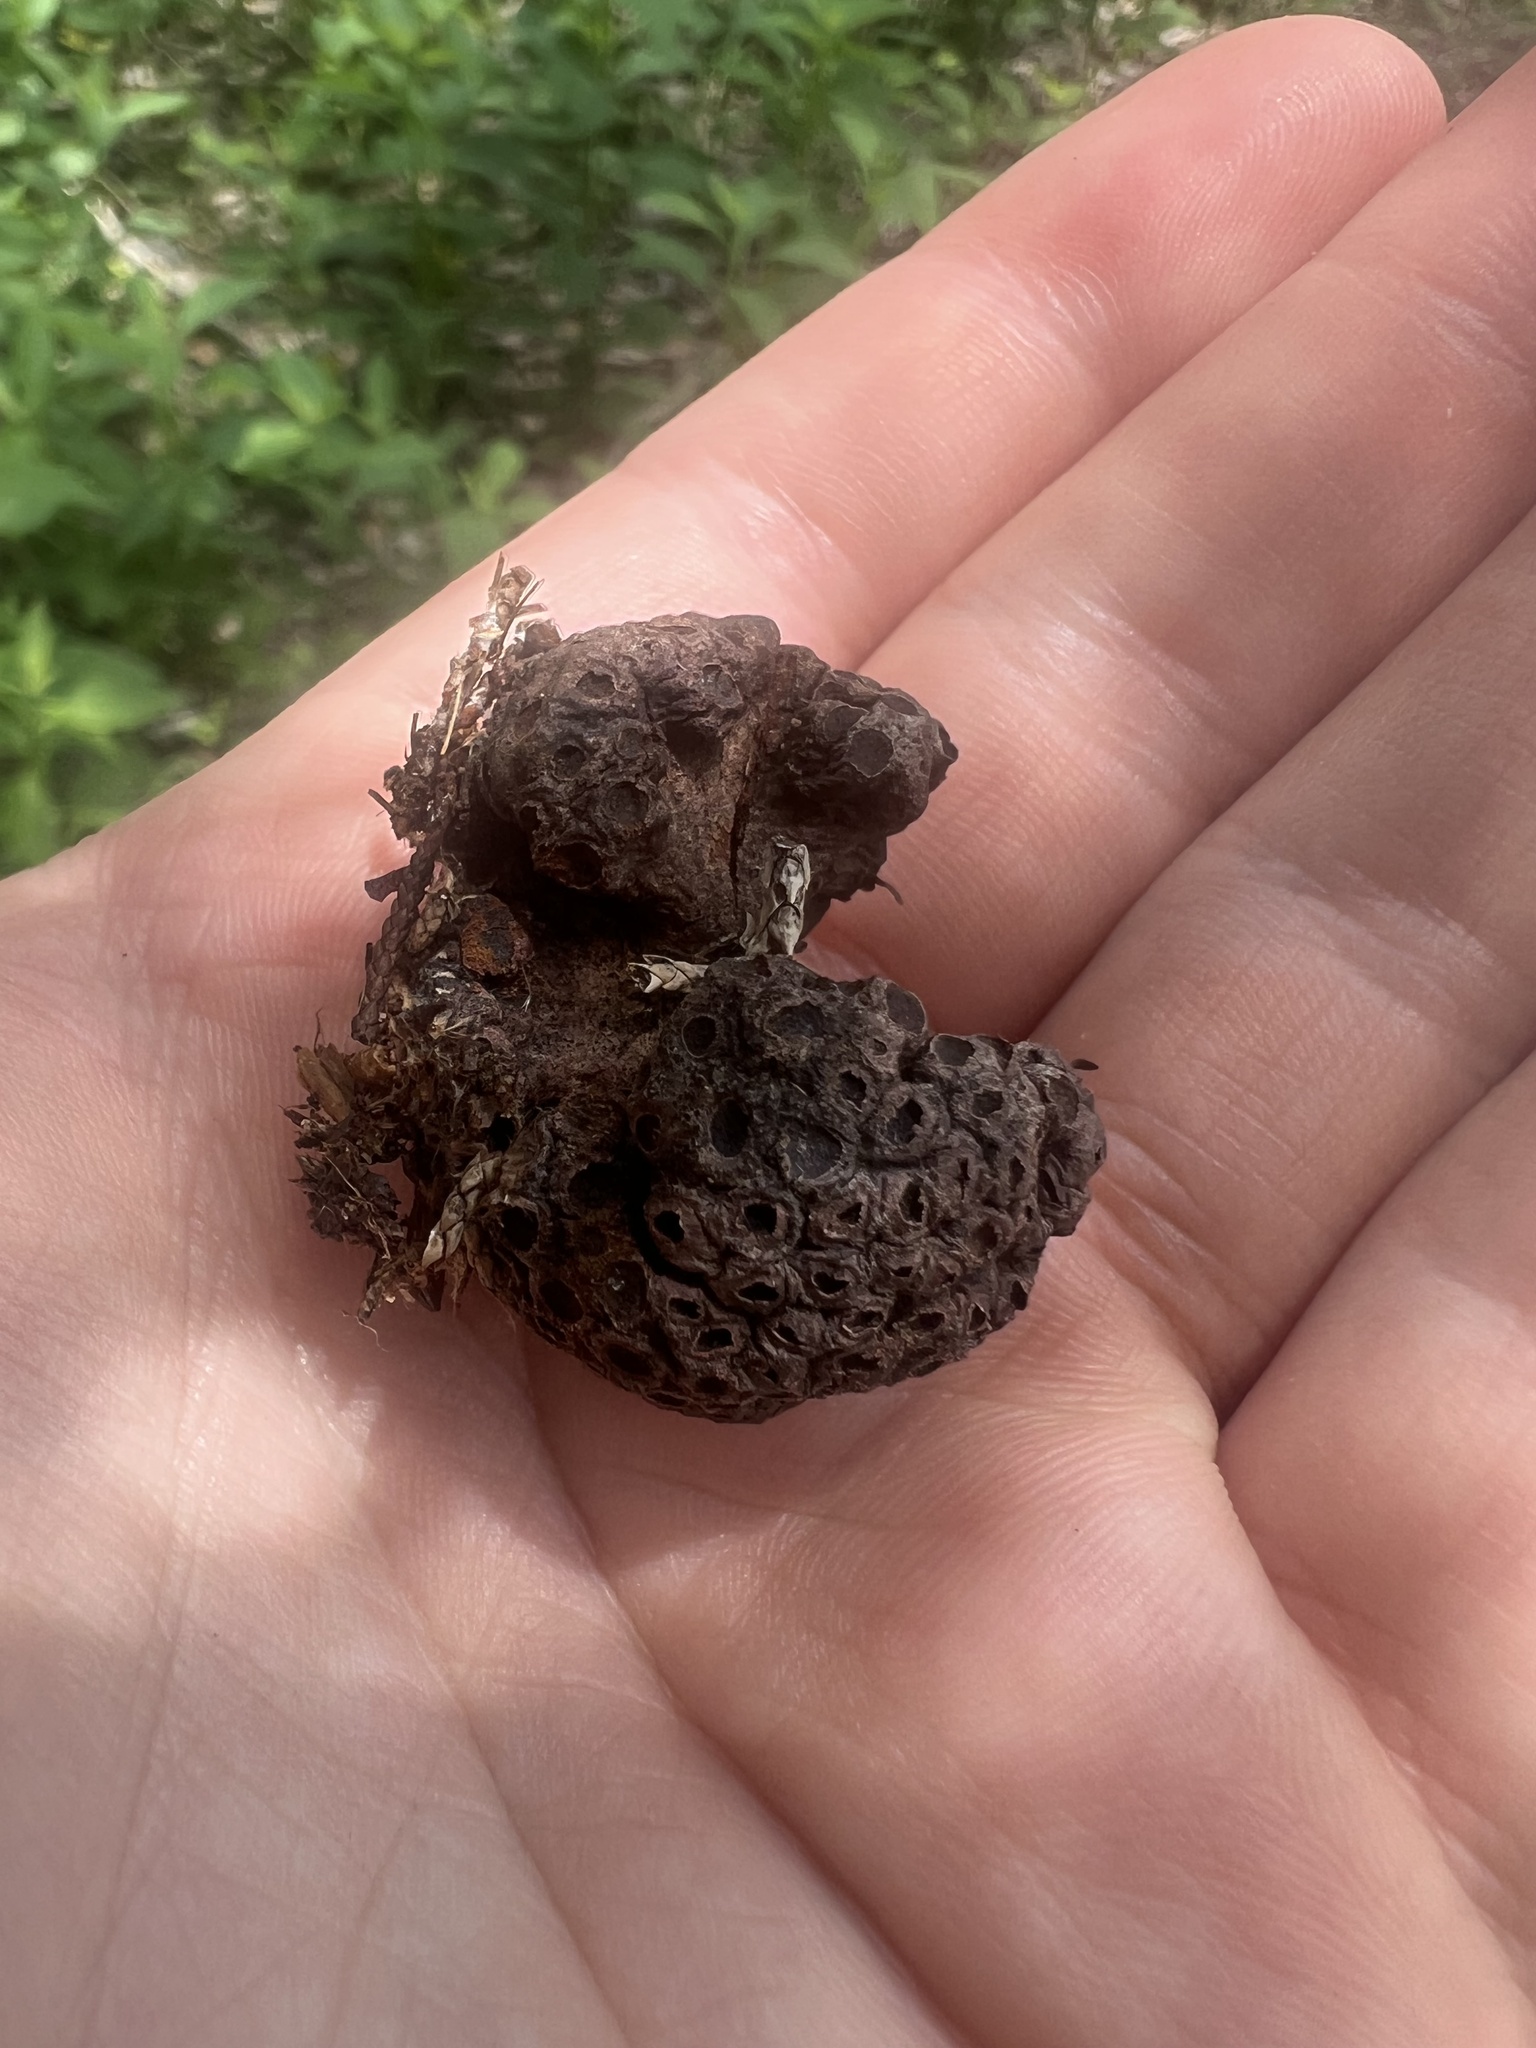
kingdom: Fungi
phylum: Basidiomycota
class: Pucciniomycetes
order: Pucciniales
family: Gymnosporangiaceae
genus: Gymnosporangium
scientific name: Gymnosporangium juniperi-virginianae
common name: Juniper-apple rust
